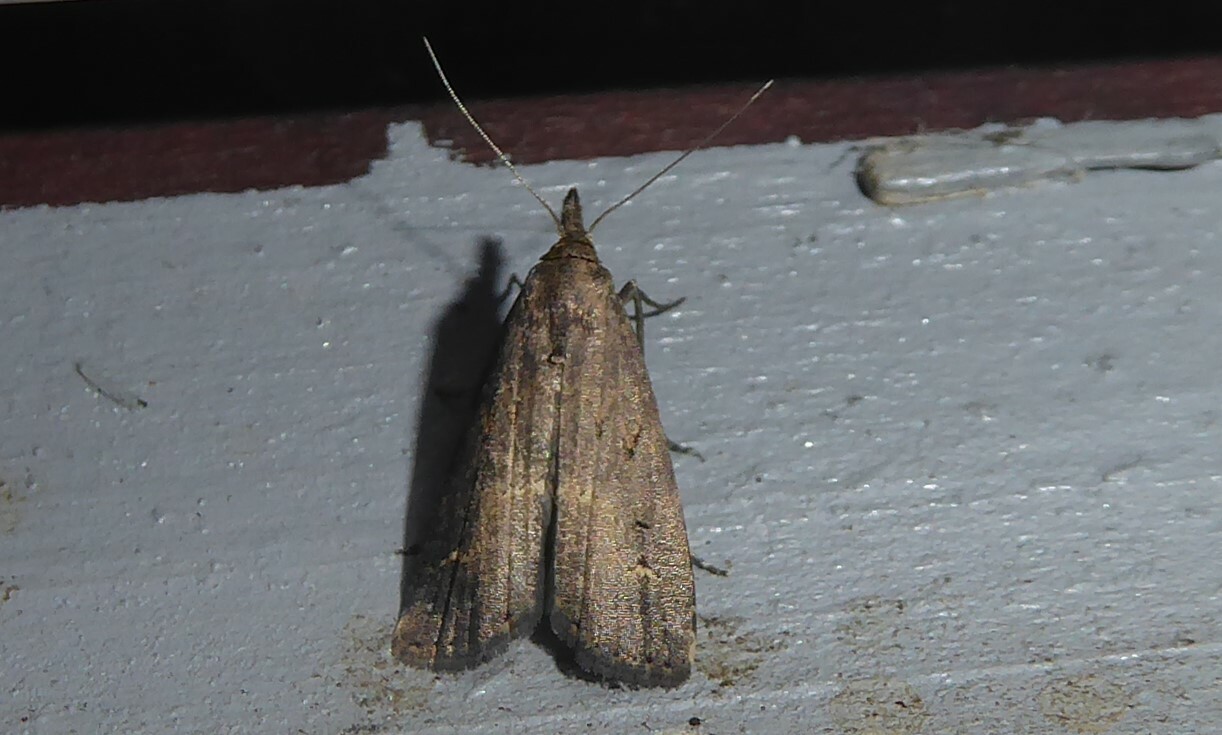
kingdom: Animalia
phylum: Arthropoda
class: Insecta
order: Lepidoptera
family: Erebidae
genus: Schrankia
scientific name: Schrankia costaestrigalis
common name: Pinion-streaked snout
